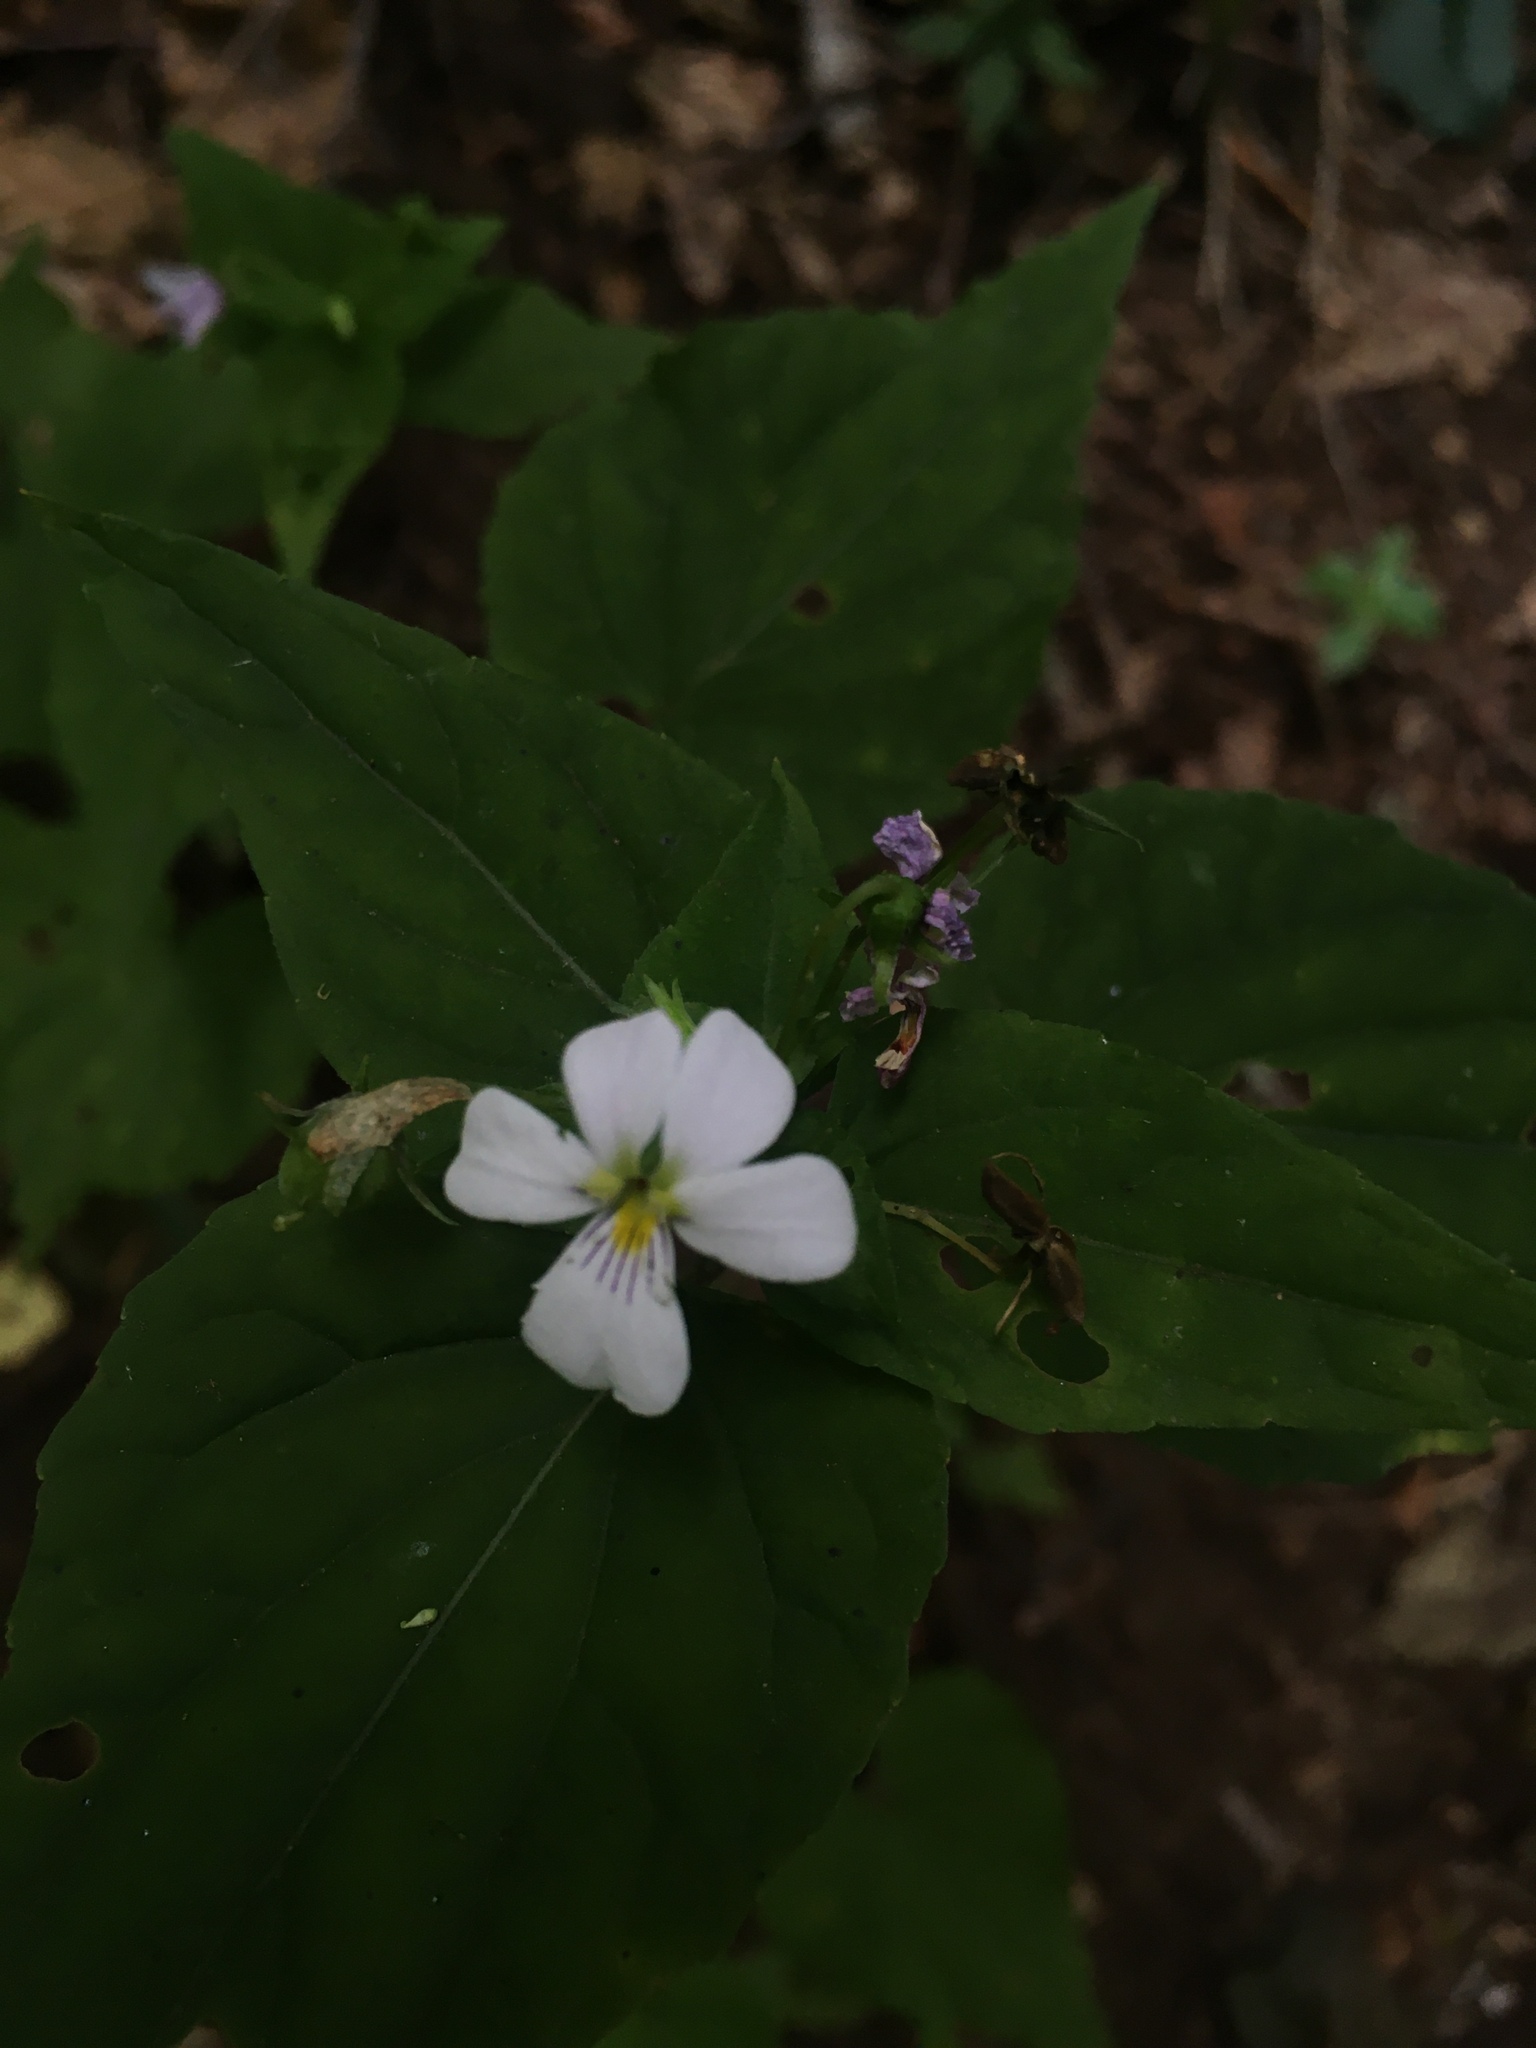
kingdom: Plantae
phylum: Tracheophyta
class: Magnoliopsida
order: Malpighiales
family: Violaceae
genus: Viola
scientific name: Viola canadensis
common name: Canada violet
